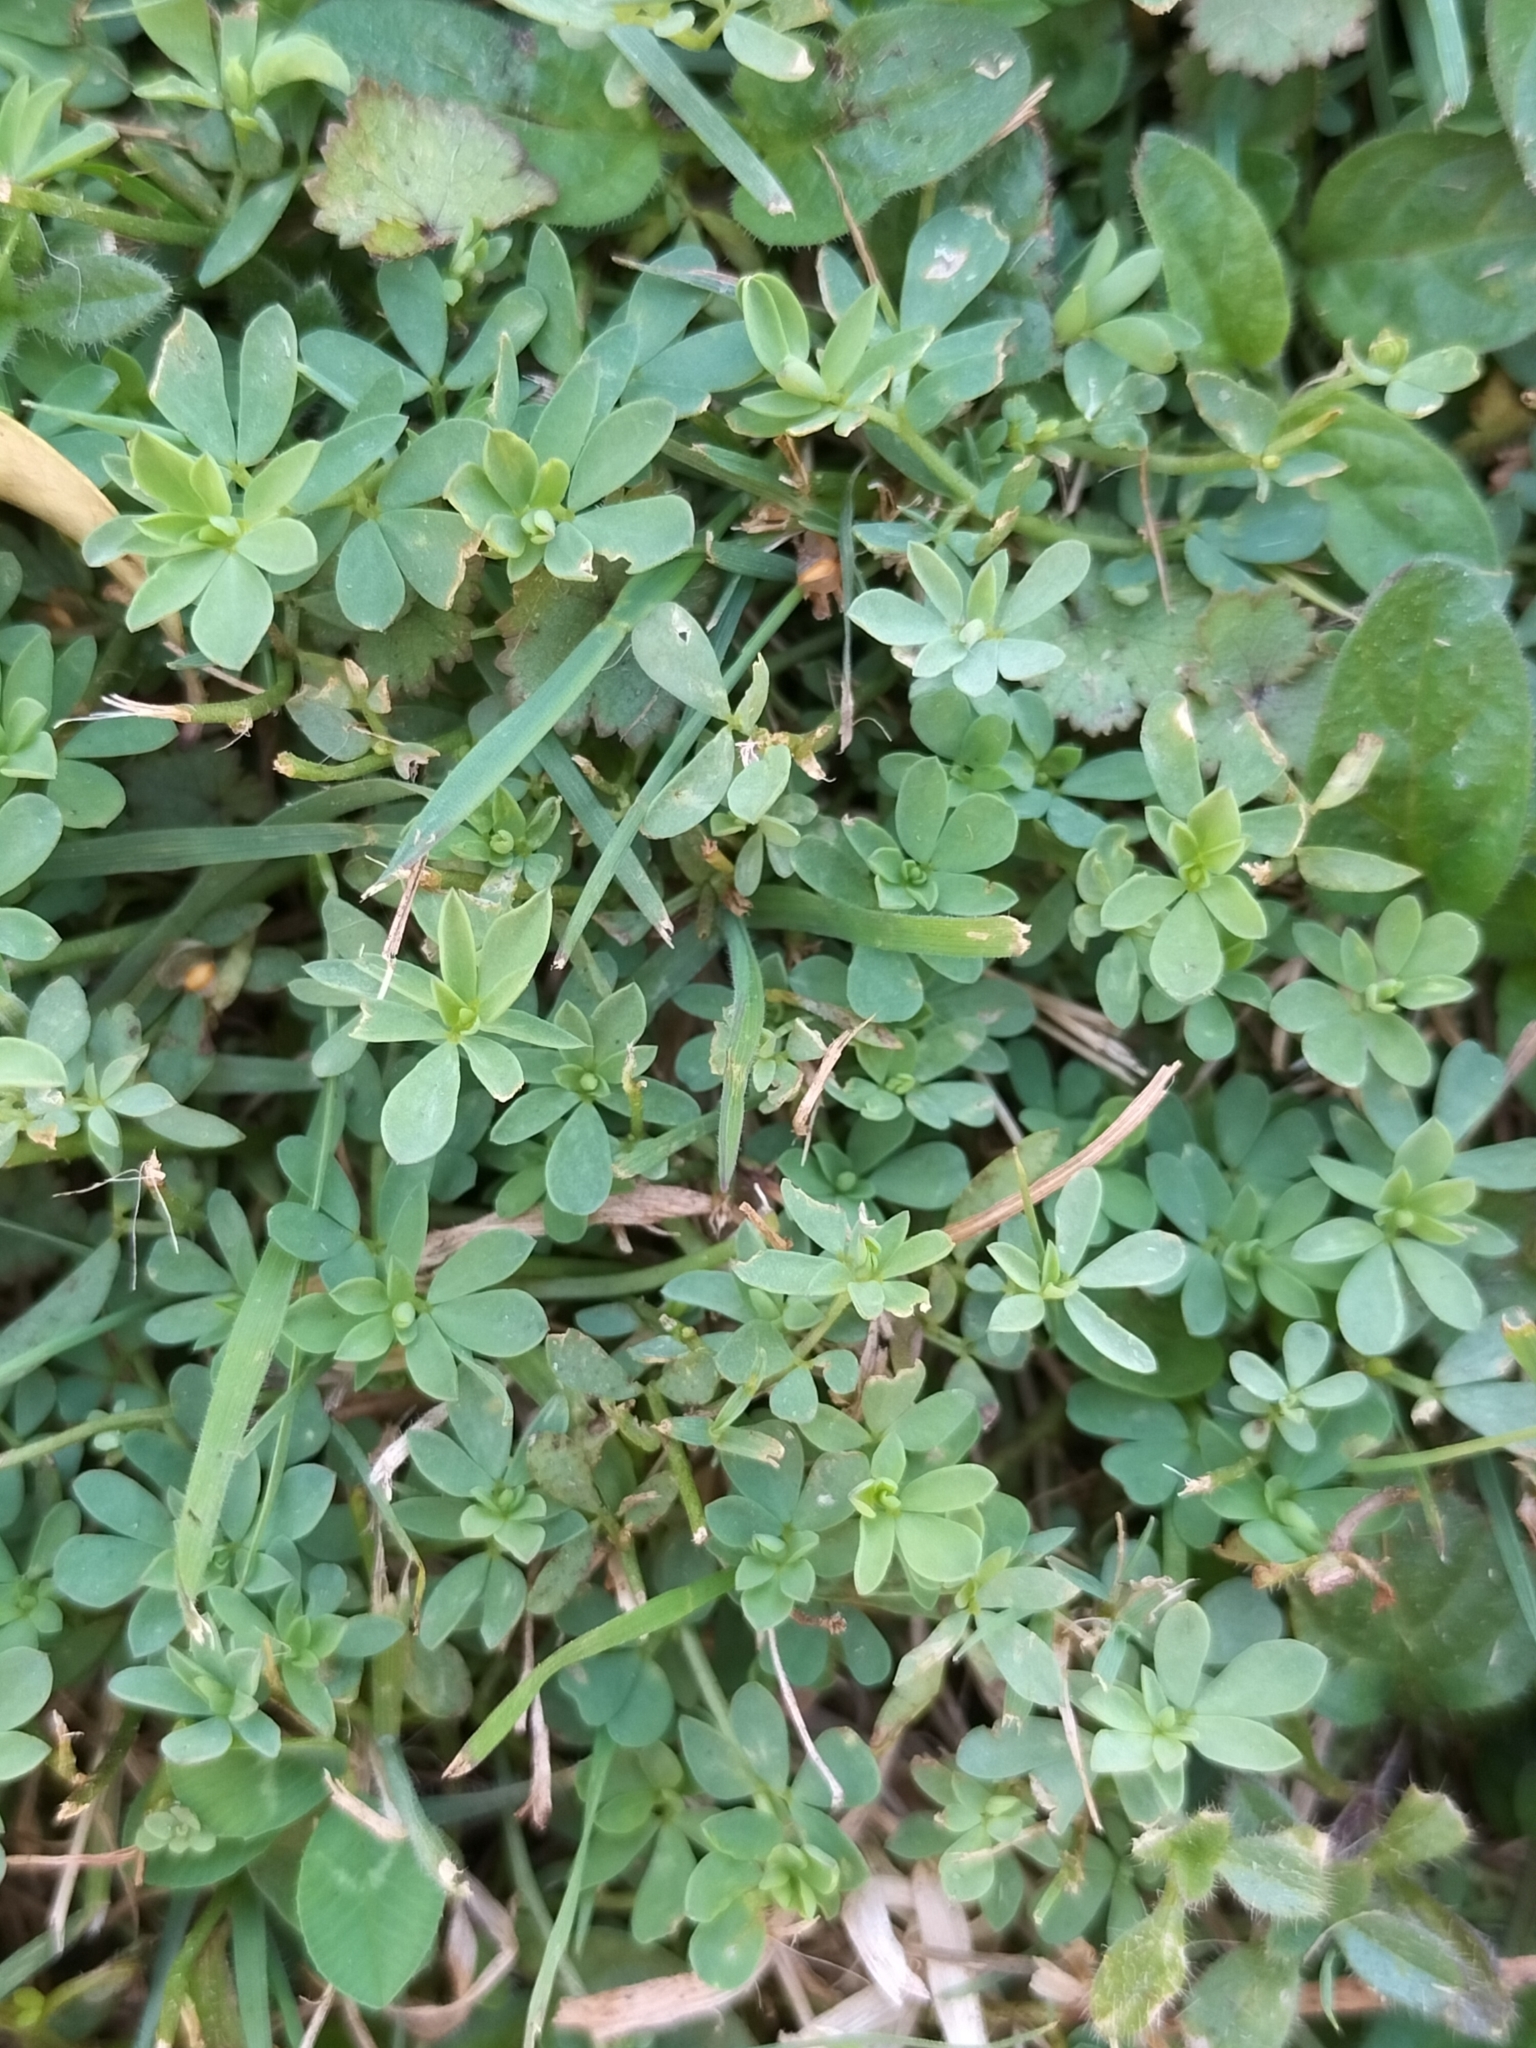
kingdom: Plantae
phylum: Tracheophyta
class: Magnoliopsida
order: Fabales
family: Fabaceae
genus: Lotus
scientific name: Lotus pedunculatus
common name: Greater birdsfoot-trefoil
